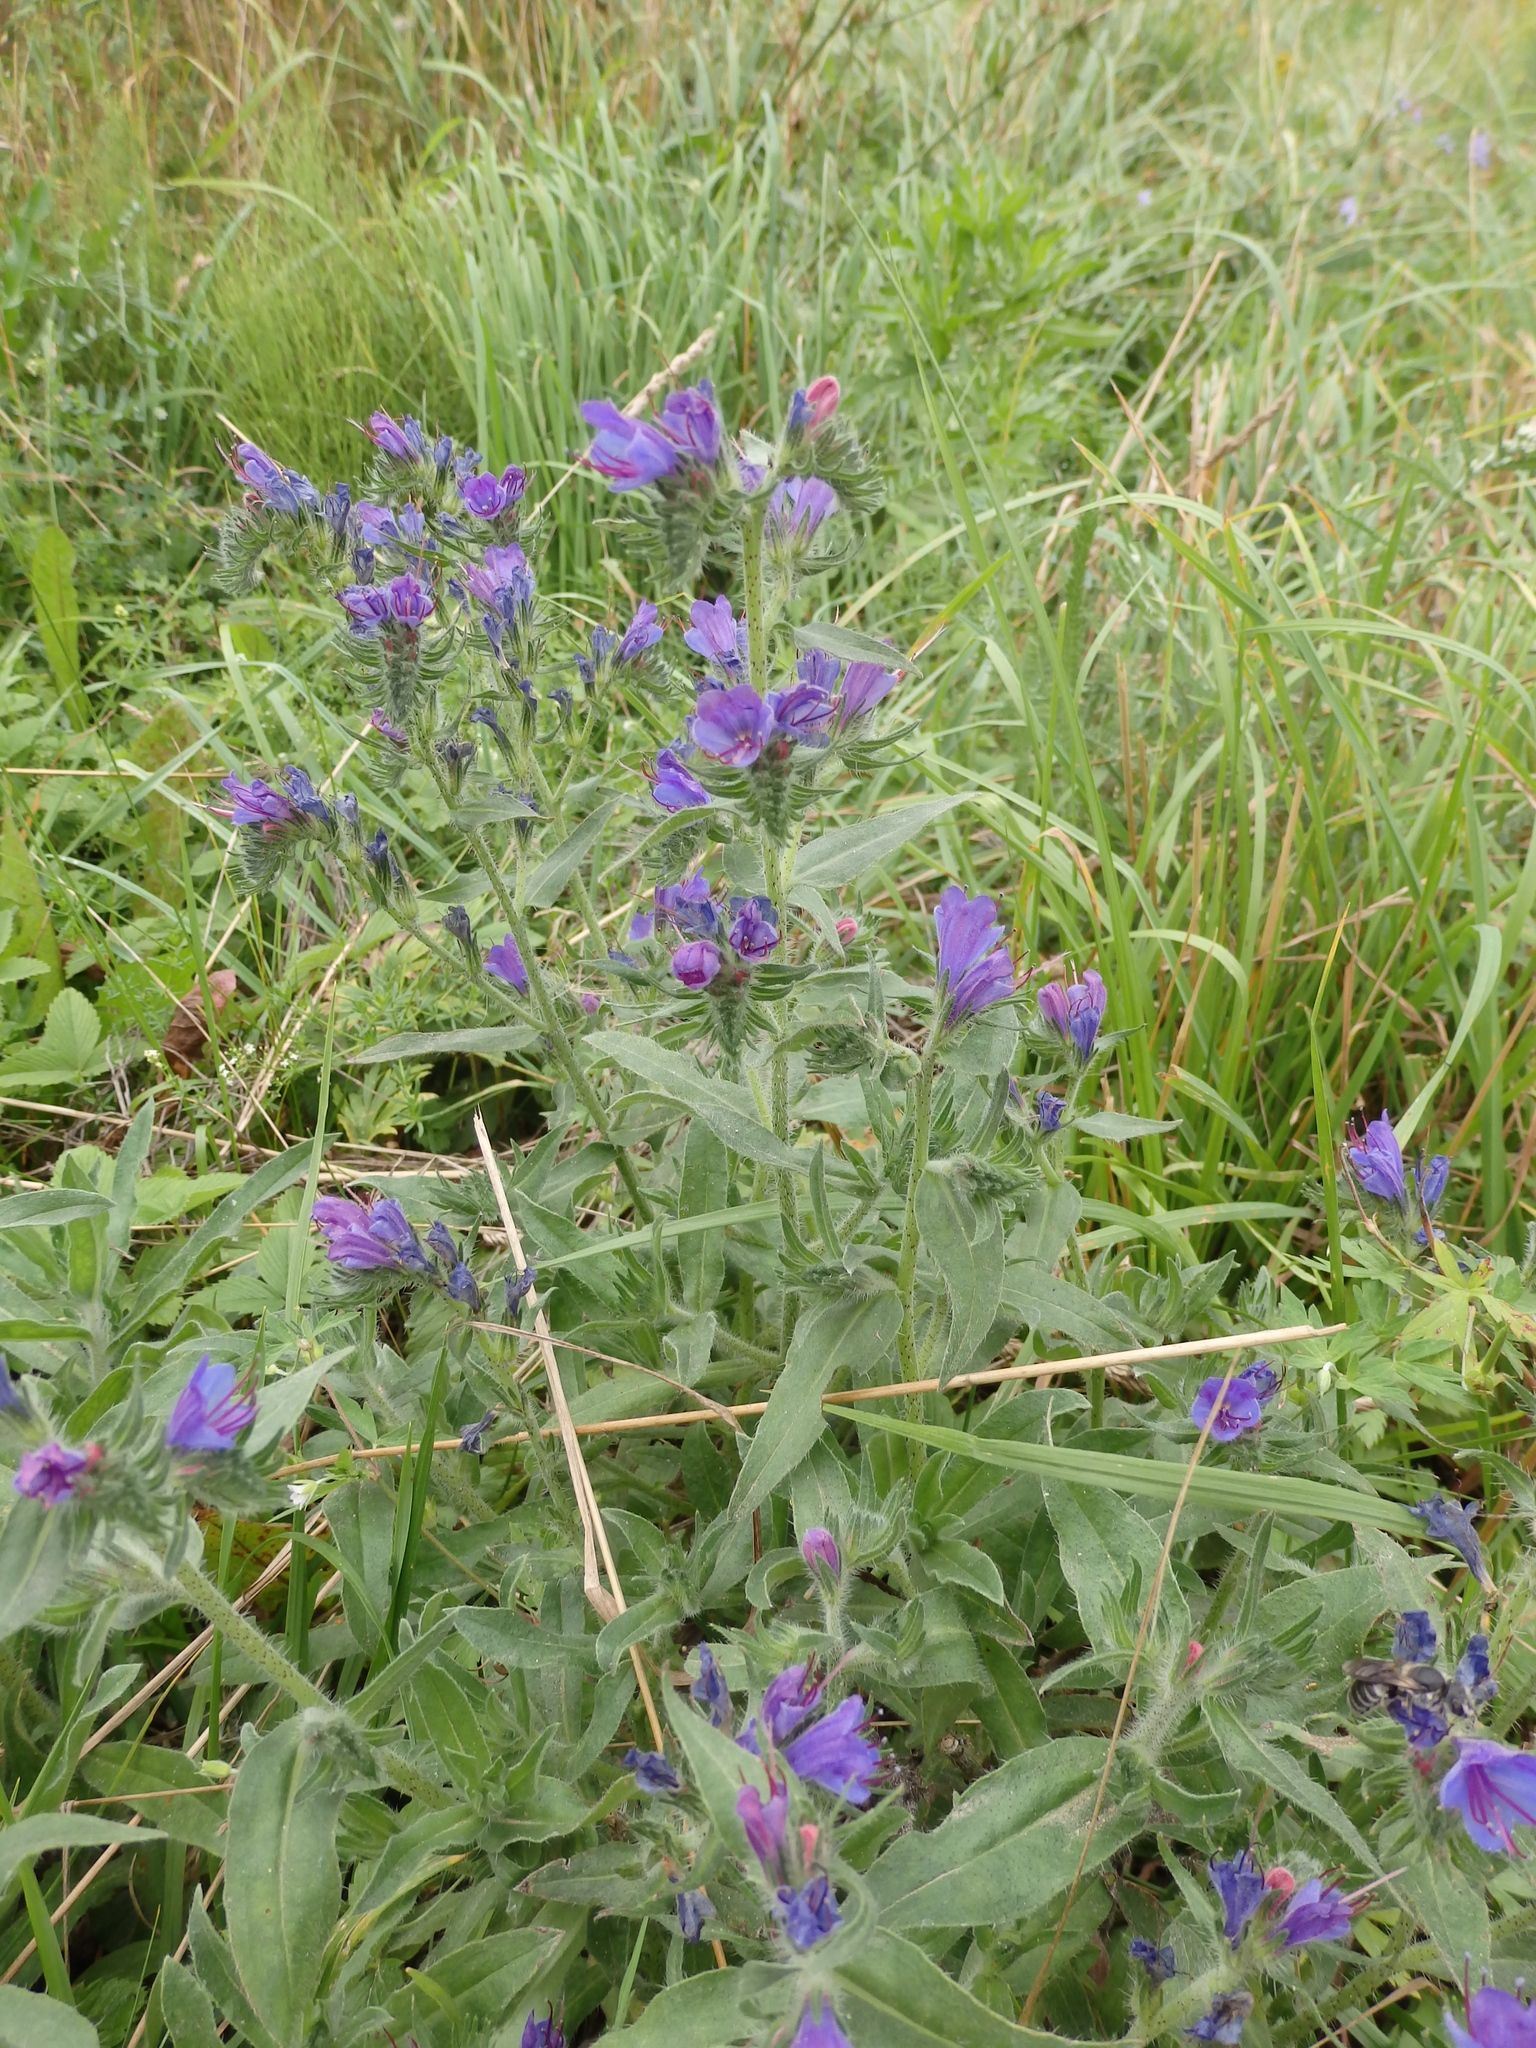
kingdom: Plantae
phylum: Tracheophyta
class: Magnoliopsida
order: Boraginales
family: Boraginaceae
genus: Echium
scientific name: Echium vulgare
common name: Common viper's bugloss
